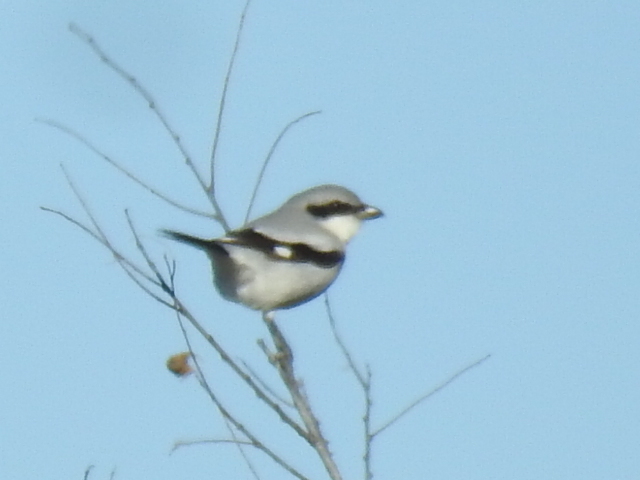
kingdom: Animalia
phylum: Chordata
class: Aves
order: Passeriformes
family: Laniidae
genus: Lanius
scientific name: Lanius ludovicianus
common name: Loggerhead shrike
